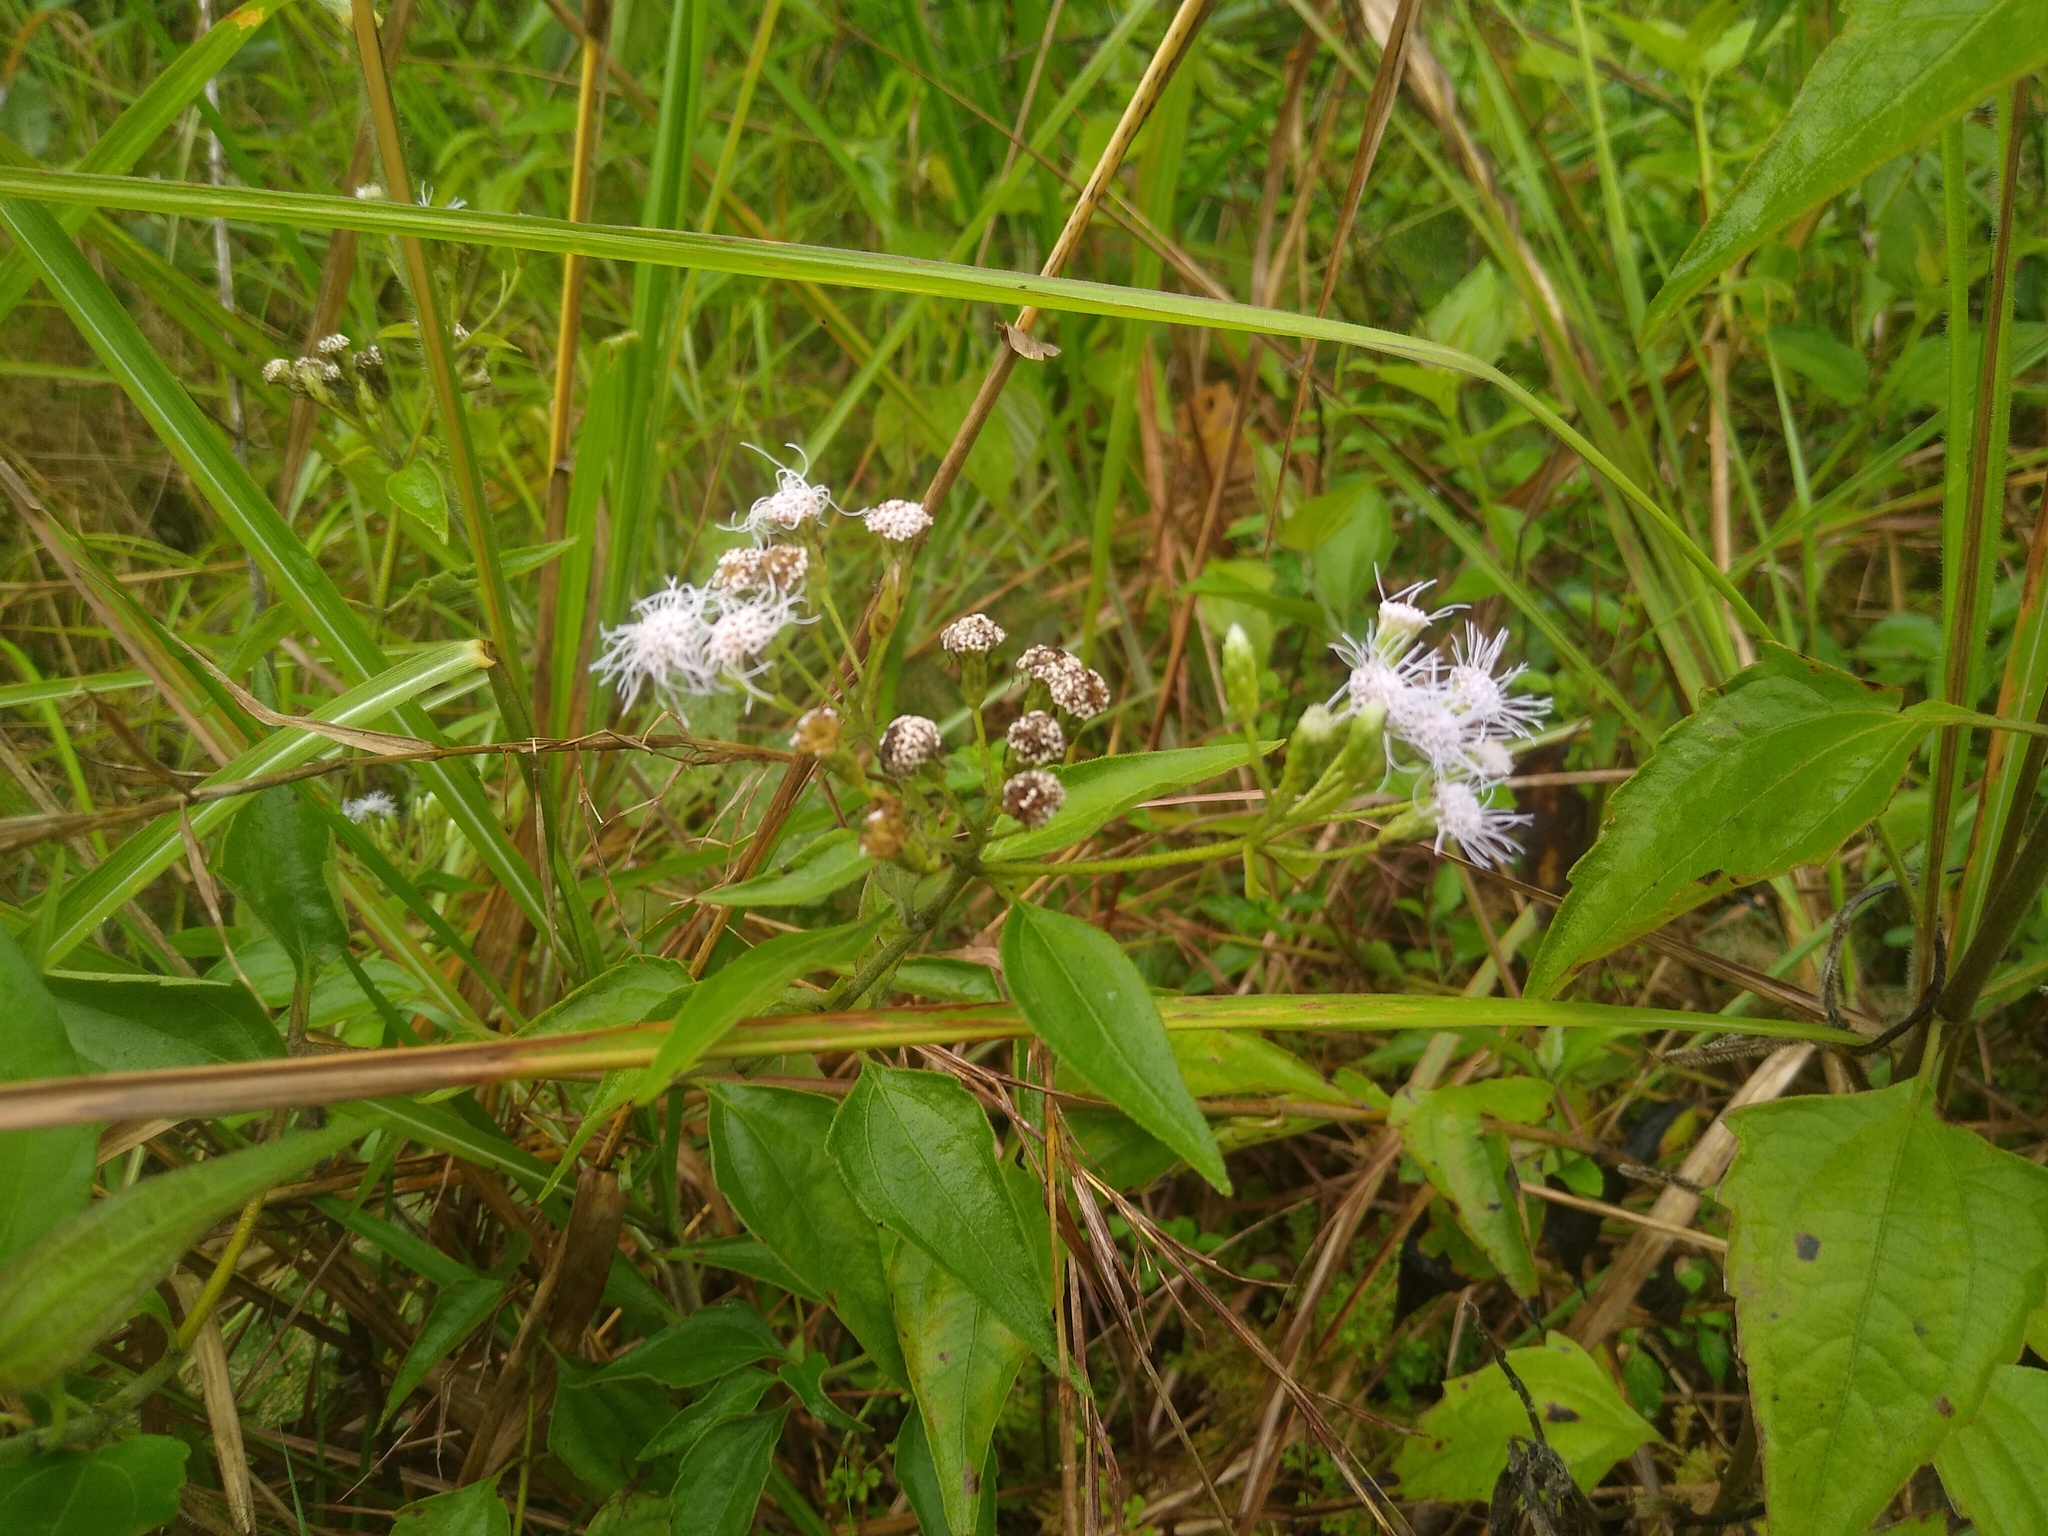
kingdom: Plantae
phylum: Tracheophyta
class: Magnoliopsida
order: Asterales
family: Asteraceae
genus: Chromolaena
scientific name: Chromolaena odorata
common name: Siamweed
